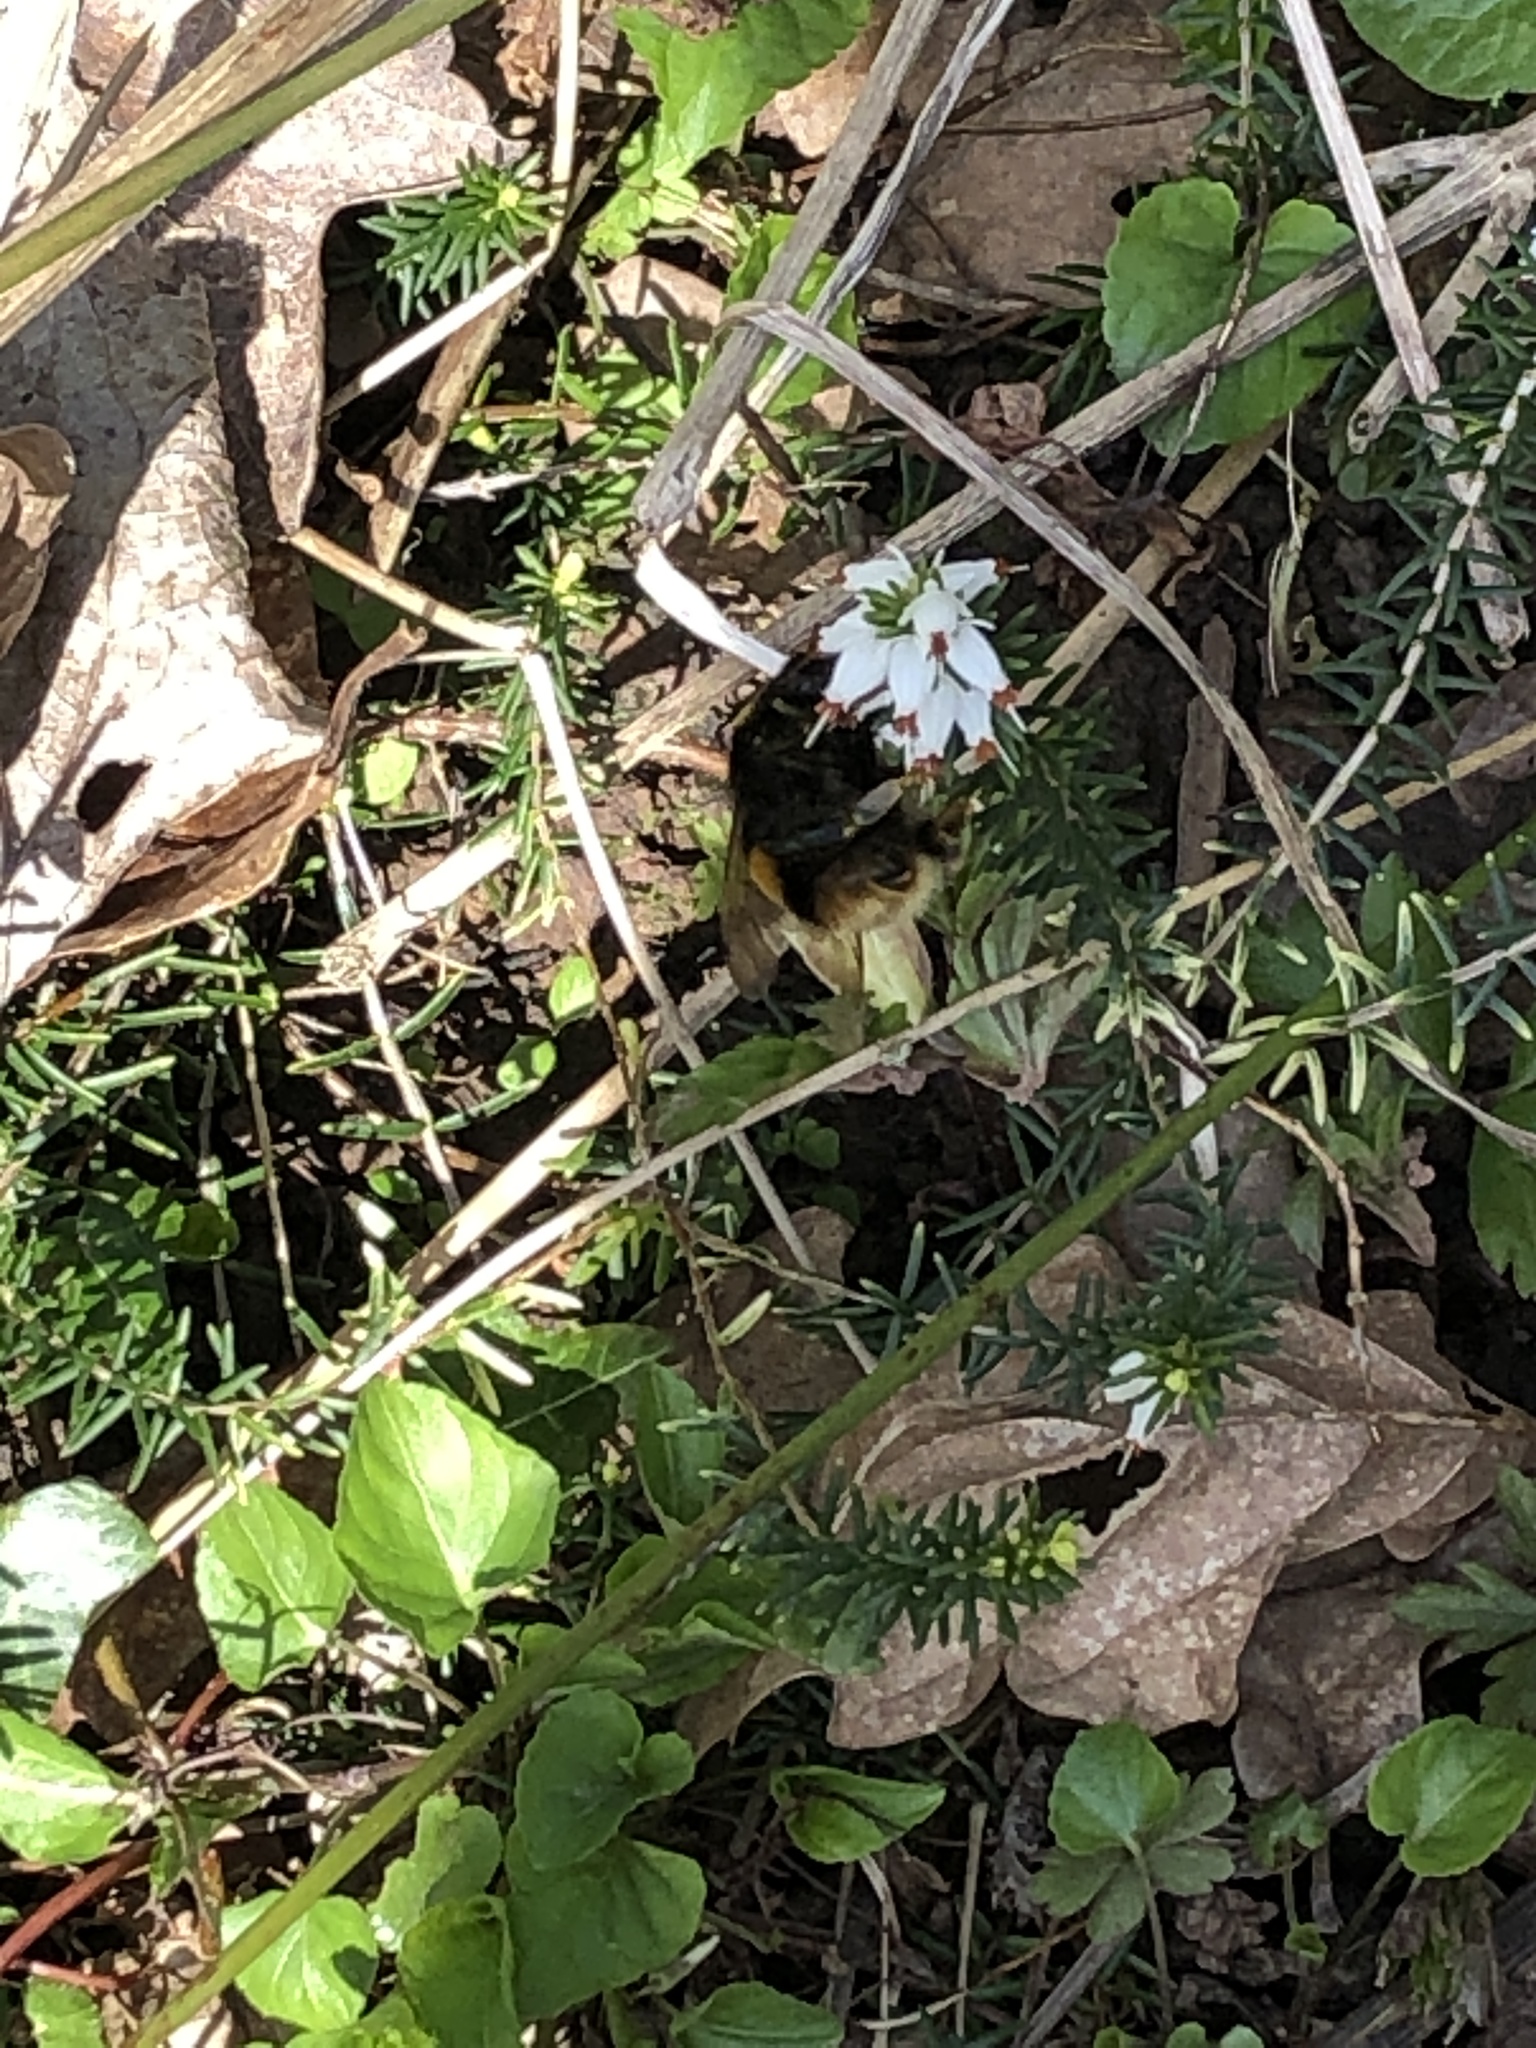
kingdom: Animalia
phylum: Arthropoda
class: Insecta
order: Hymenoptera
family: Apidae
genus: Bombus
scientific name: Bombus terrestris
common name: Buff-tailed bumblebee
